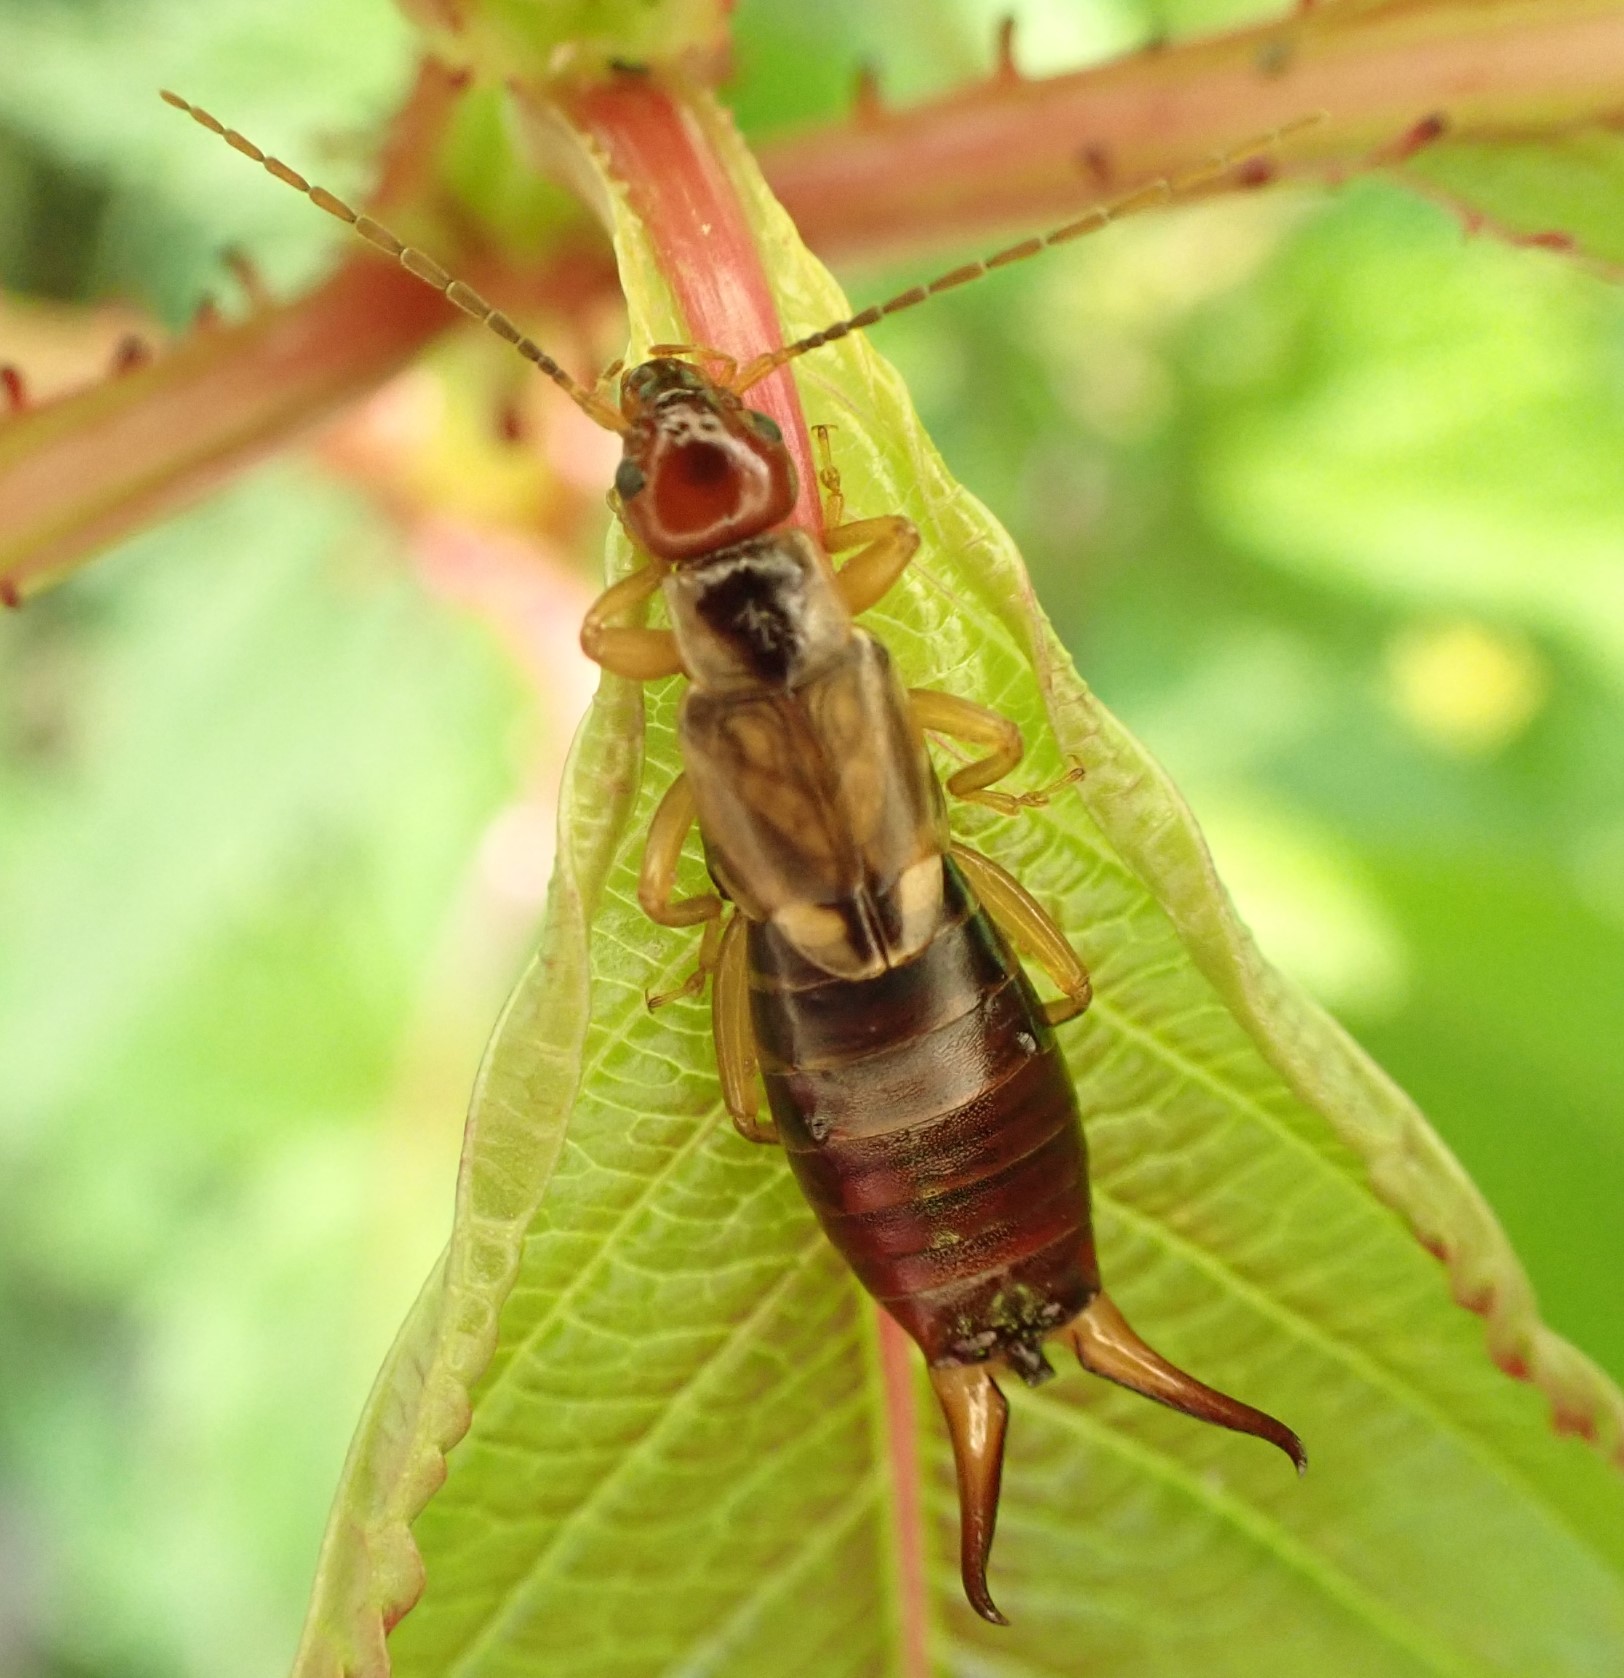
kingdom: Animalia
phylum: Arthropoda
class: Insecta
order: Dermaptera
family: Forficulidae
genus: Forficula
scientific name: Forficula
